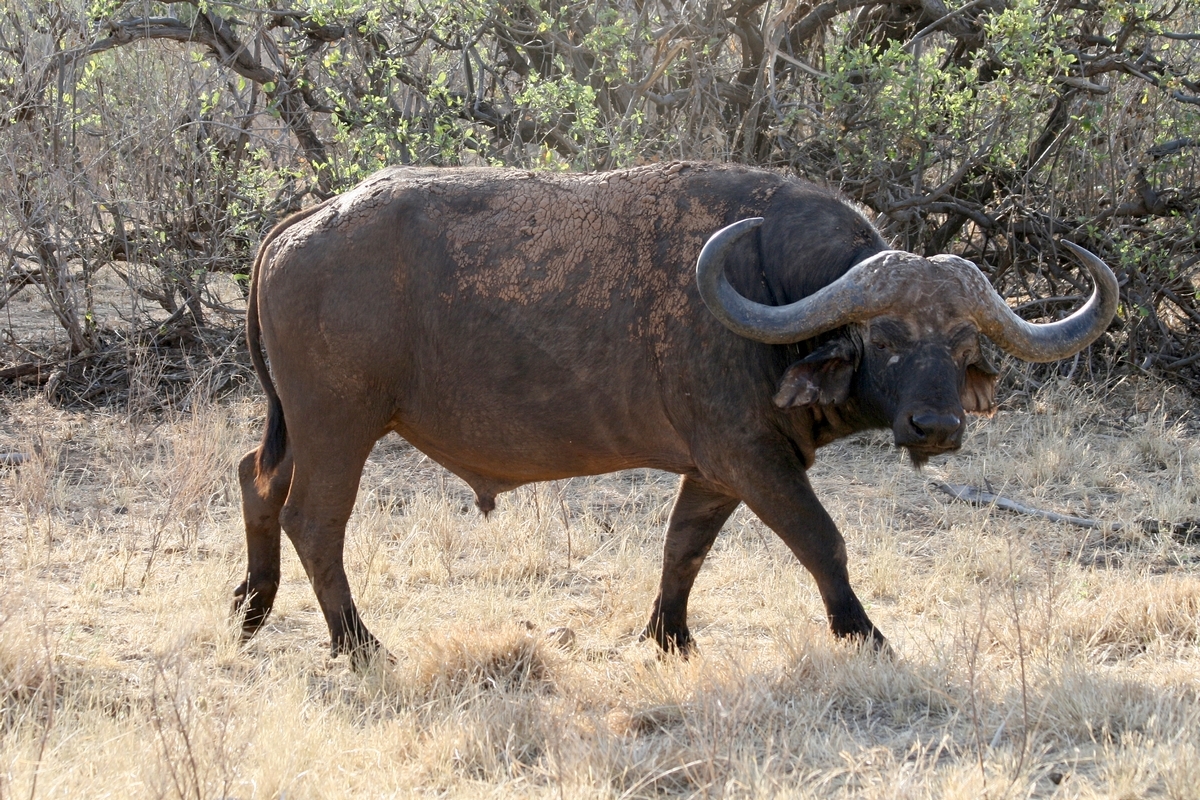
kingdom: Animalia
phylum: Chordata
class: Mammalia
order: Artiodactyla
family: Bovidae
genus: Syncerus
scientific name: Syncerus caffer
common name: African buffalo
